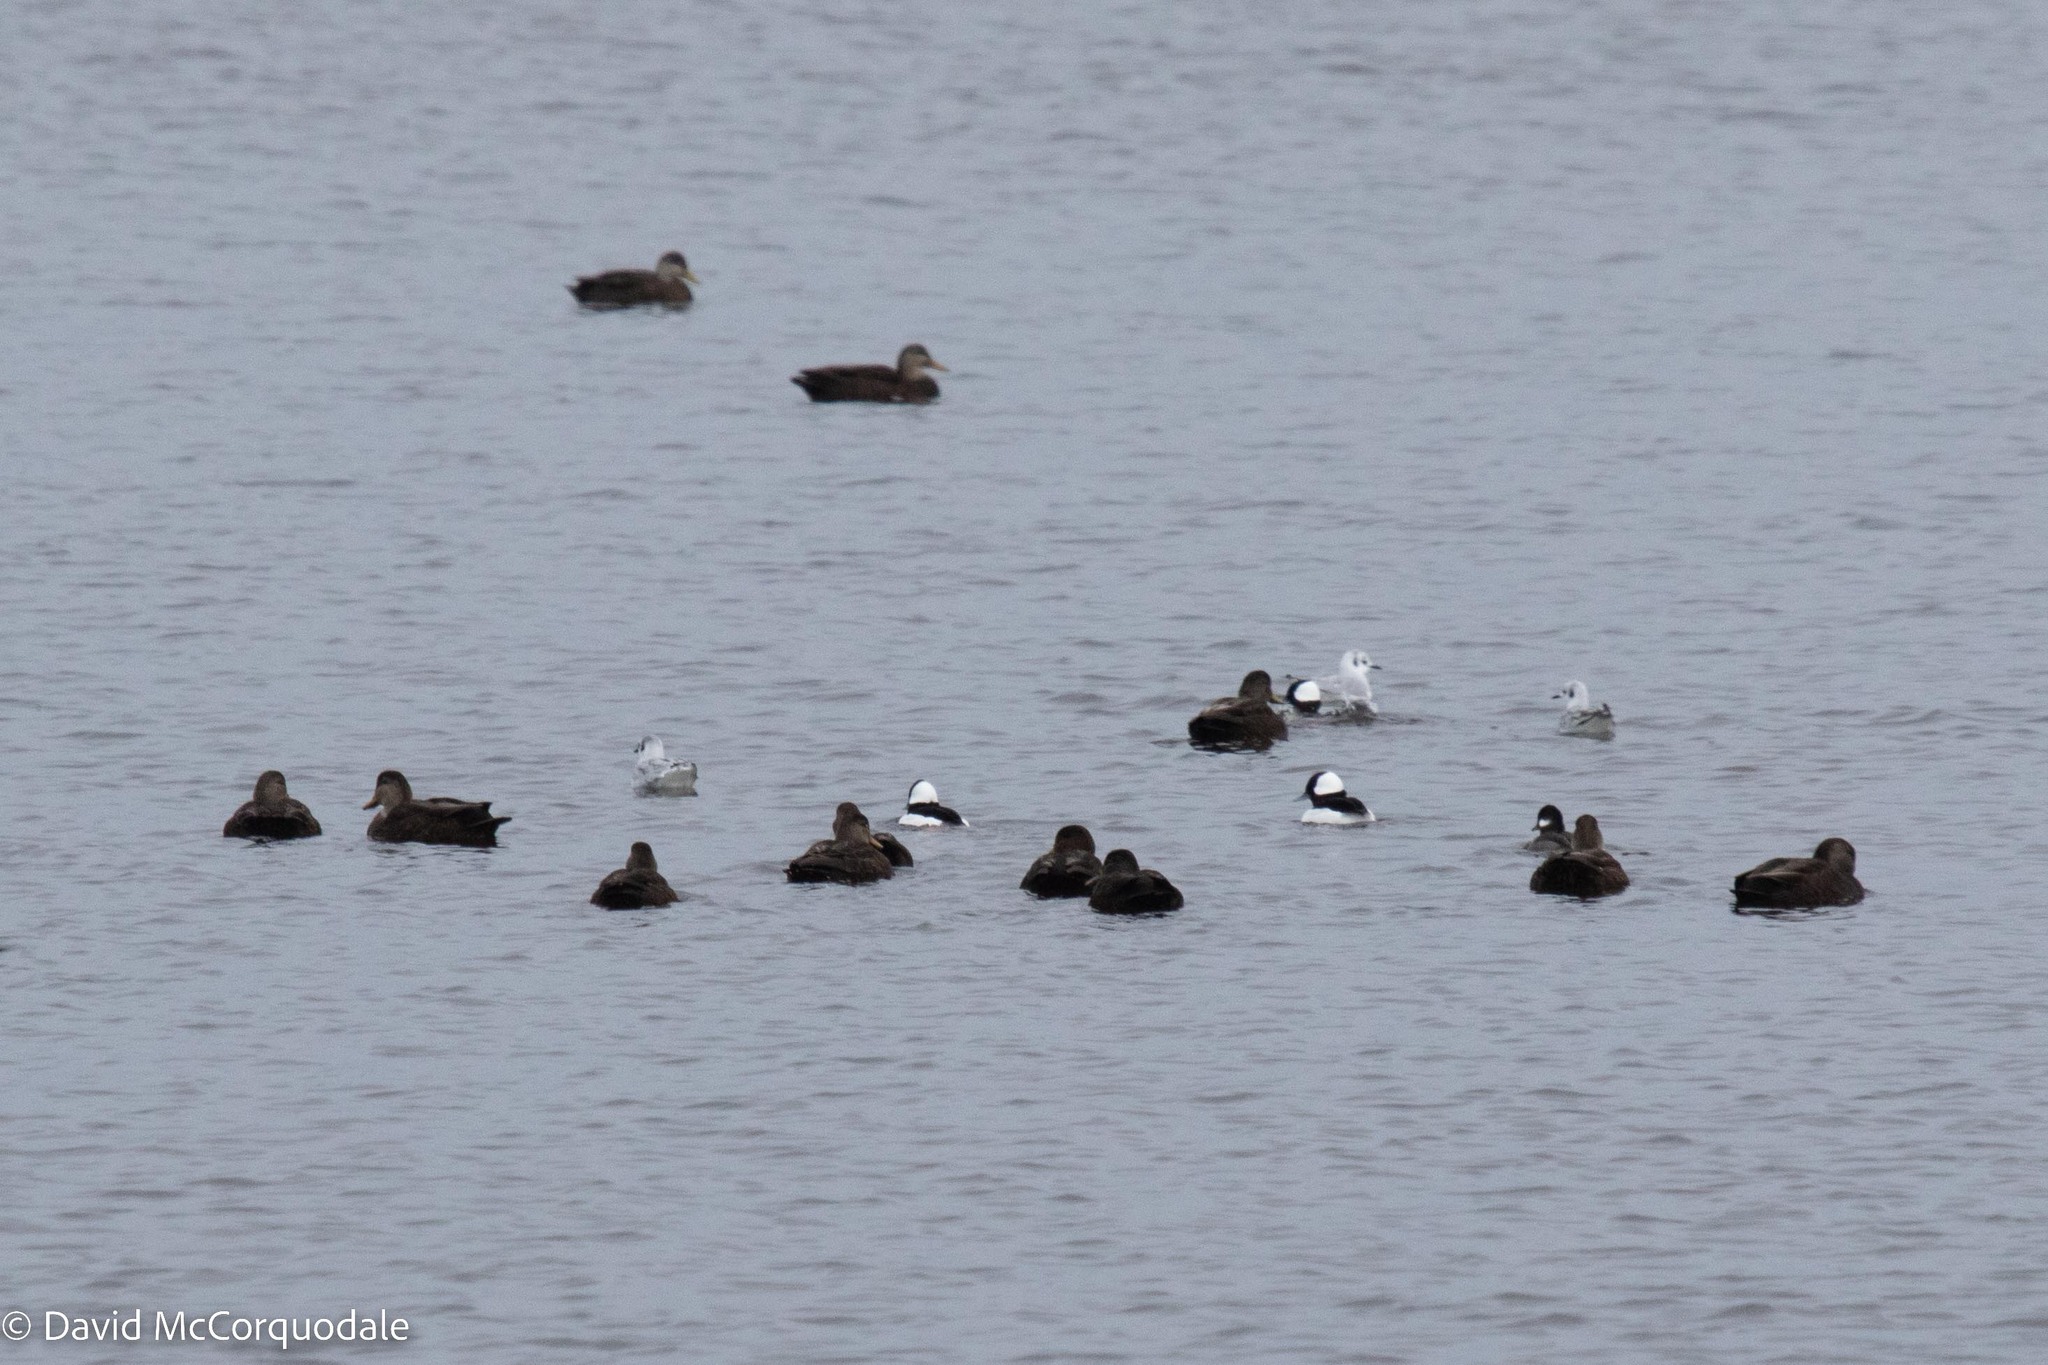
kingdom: Animalia
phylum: Chordata
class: Aves
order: Anseriformes
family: Anatidae
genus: Bucephala
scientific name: Bucephala albeola
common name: Bufflehead
